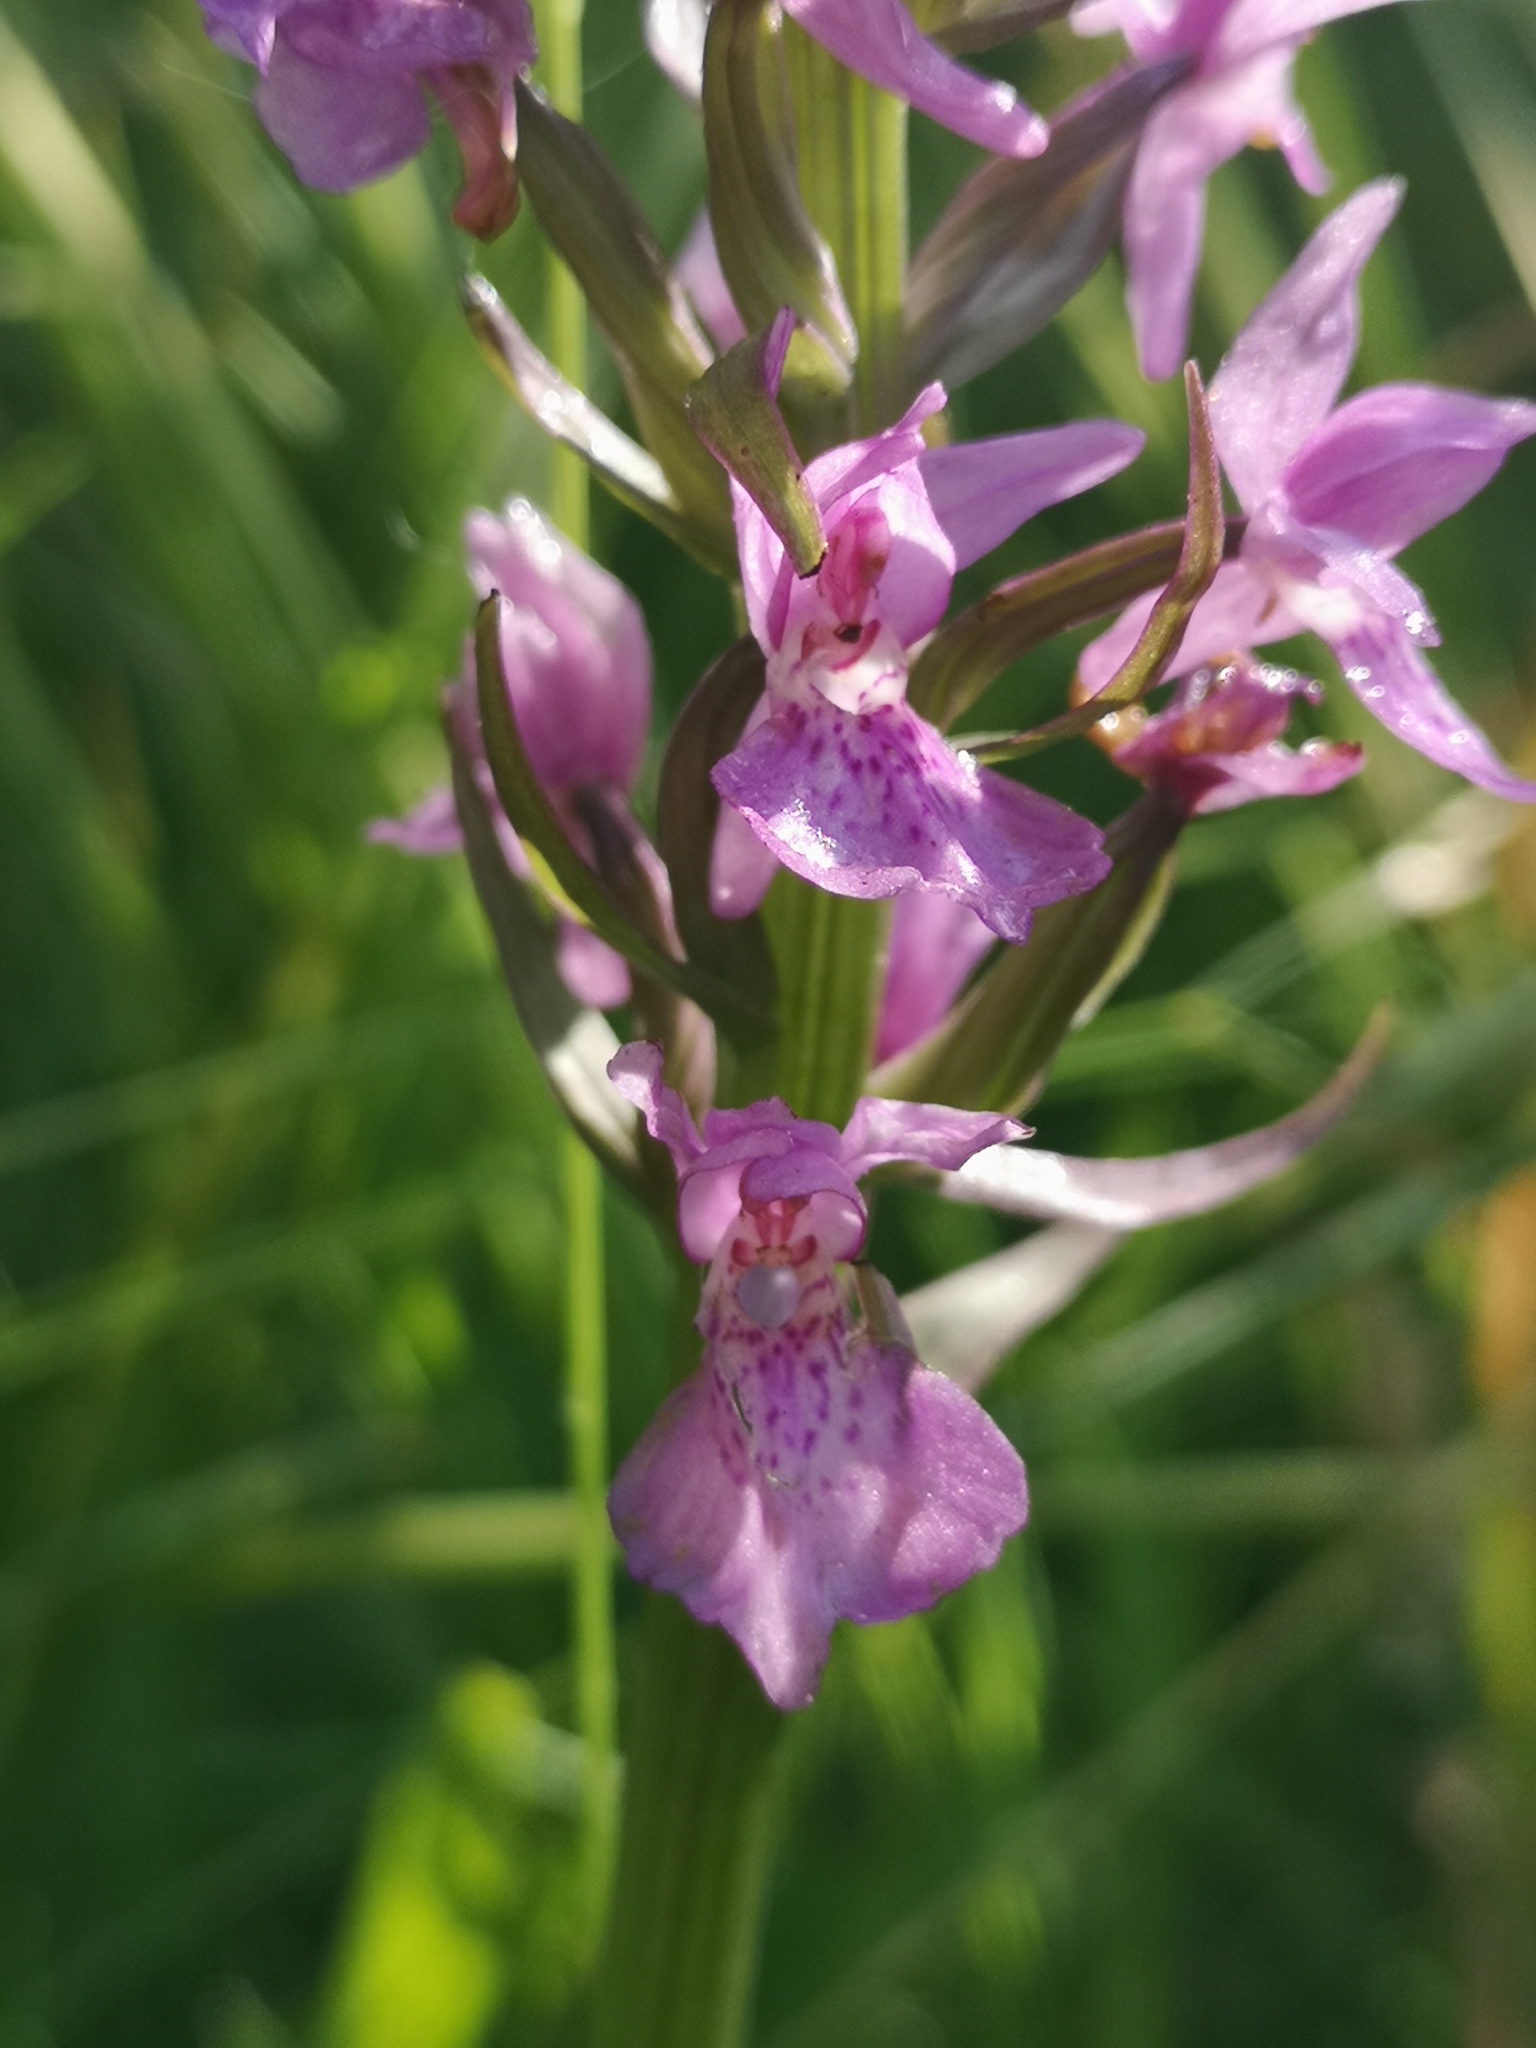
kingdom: Plantae
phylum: Tracheophyta
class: Liliopsida
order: Asparagales
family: Orchidaceae
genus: Dactylorhiza
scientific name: Dactylorhiza majalis
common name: Marsh orchid
